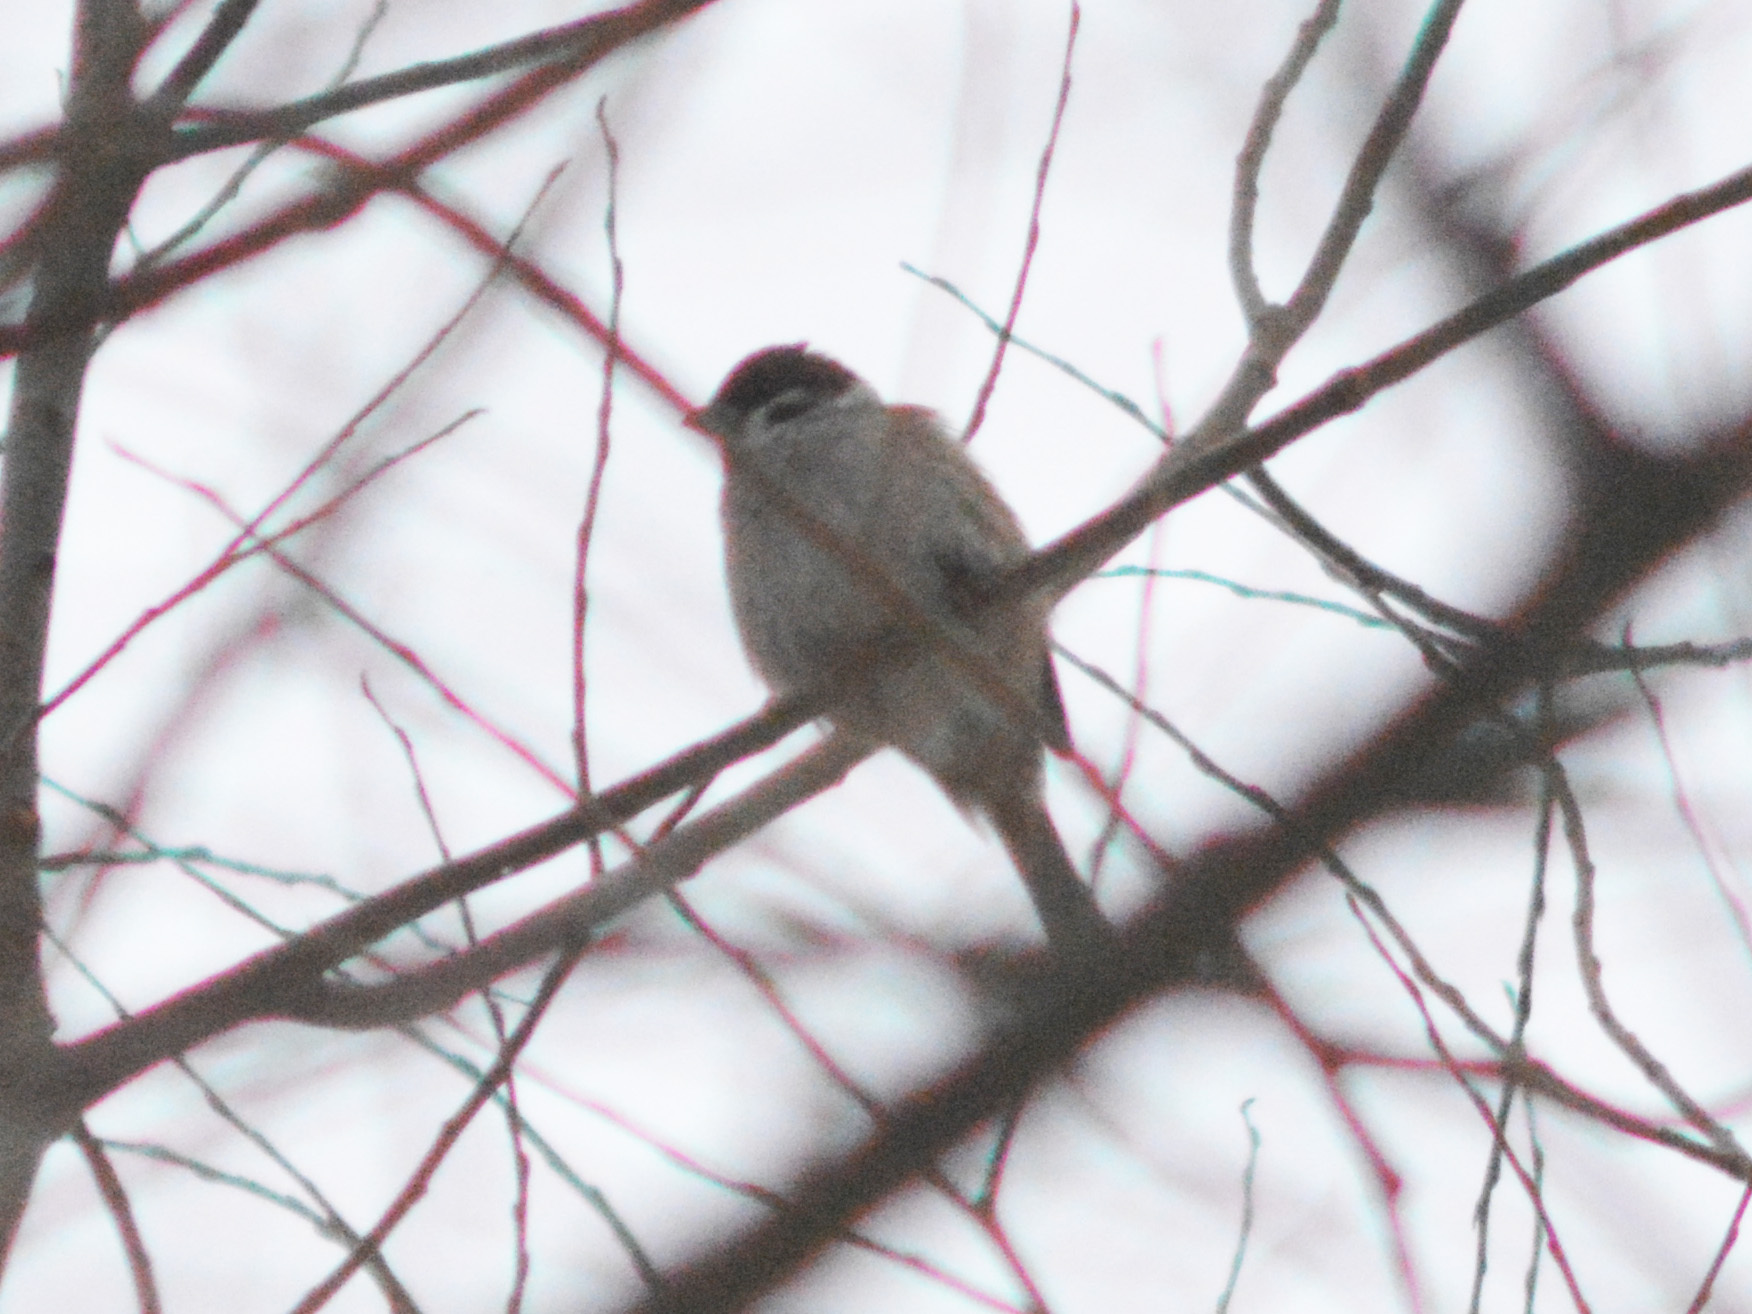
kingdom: Animalia
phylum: Chordata
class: Aves
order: Passeriformes
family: Passeridae
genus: Passer
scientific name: Passer montanus
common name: Eurasian tree sparrow
